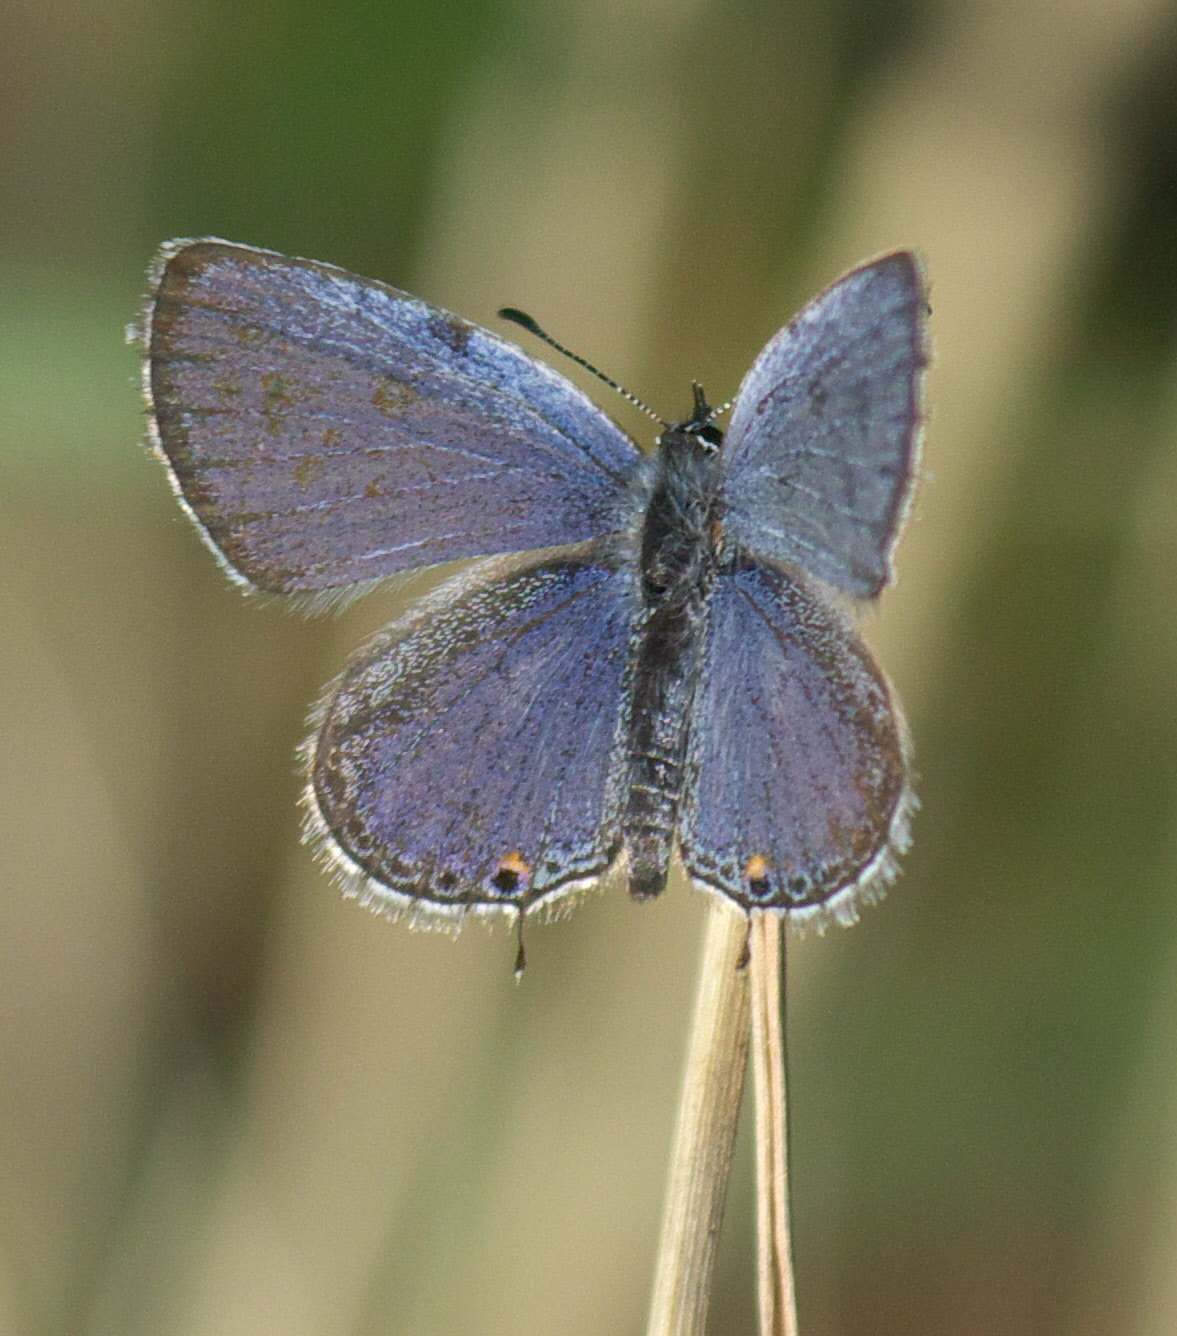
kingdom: Animalia
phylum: Arthropoda
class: Insecta
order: Lepidoptera
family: Lycaenidae
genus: Elkalyce
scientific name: Elkalyce comyntas
